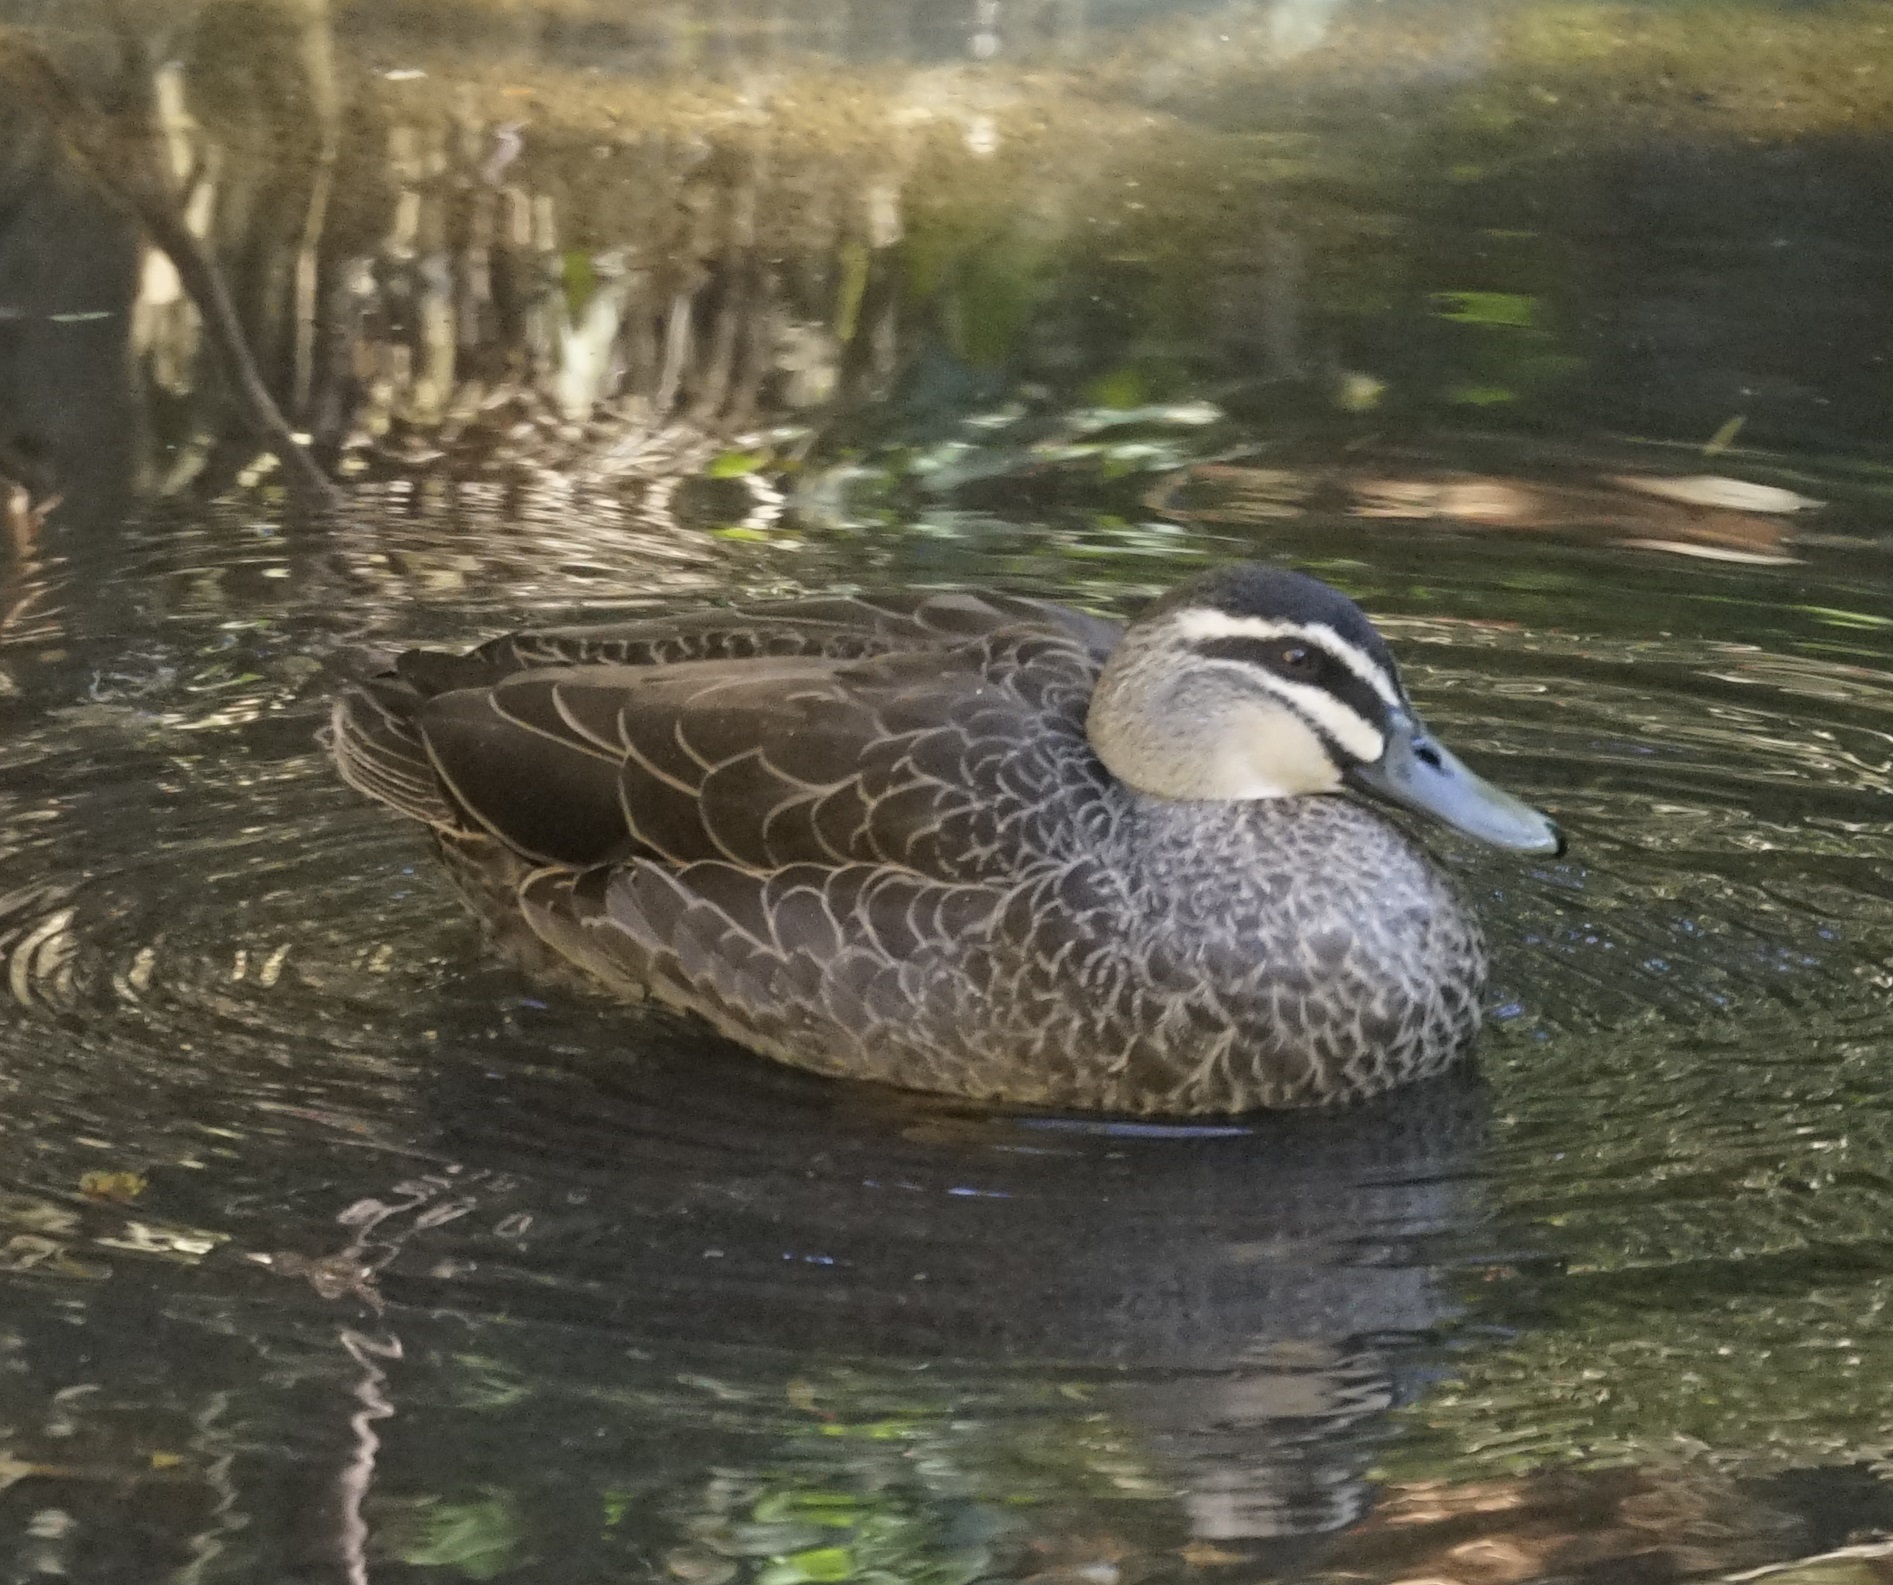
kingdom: Animalia
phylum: Chordata
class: Aves
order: Anseriformes
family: Anatidae
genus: Anas
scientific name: Anas superciliosa
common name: Pacific black duck
